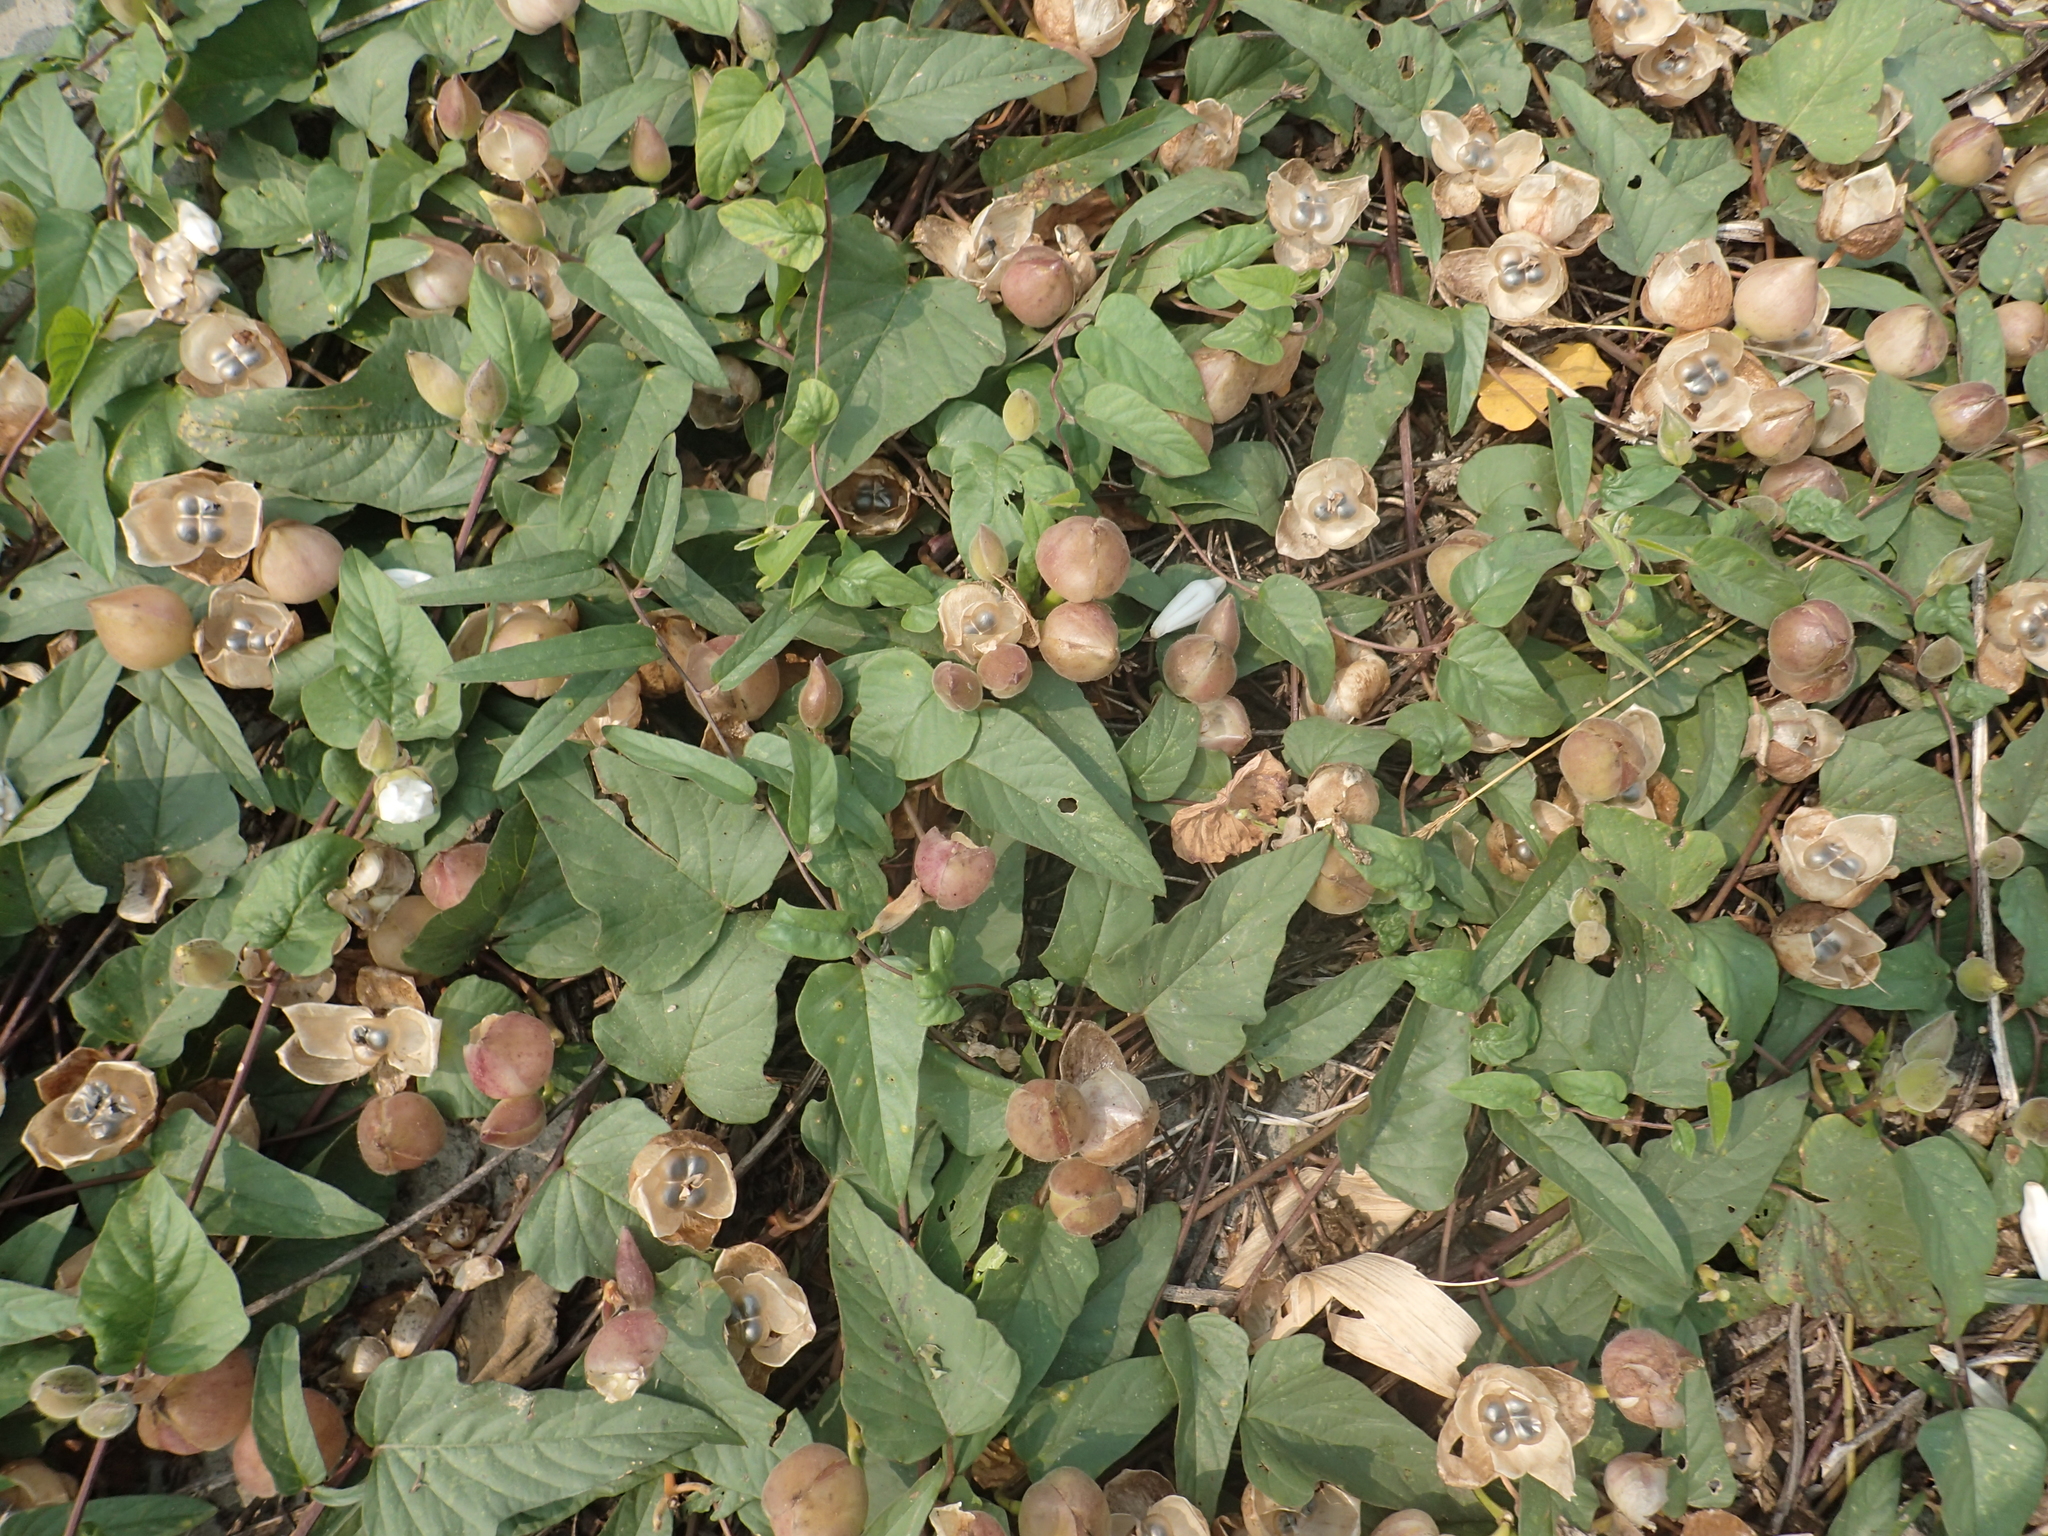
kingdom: Plantae
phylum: Tracheophyta
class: Magnoliopsida
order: Solanales
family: Convolvulaceae
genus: Operculina
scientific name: Operculina turpethum
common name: Transparent wood-rose
